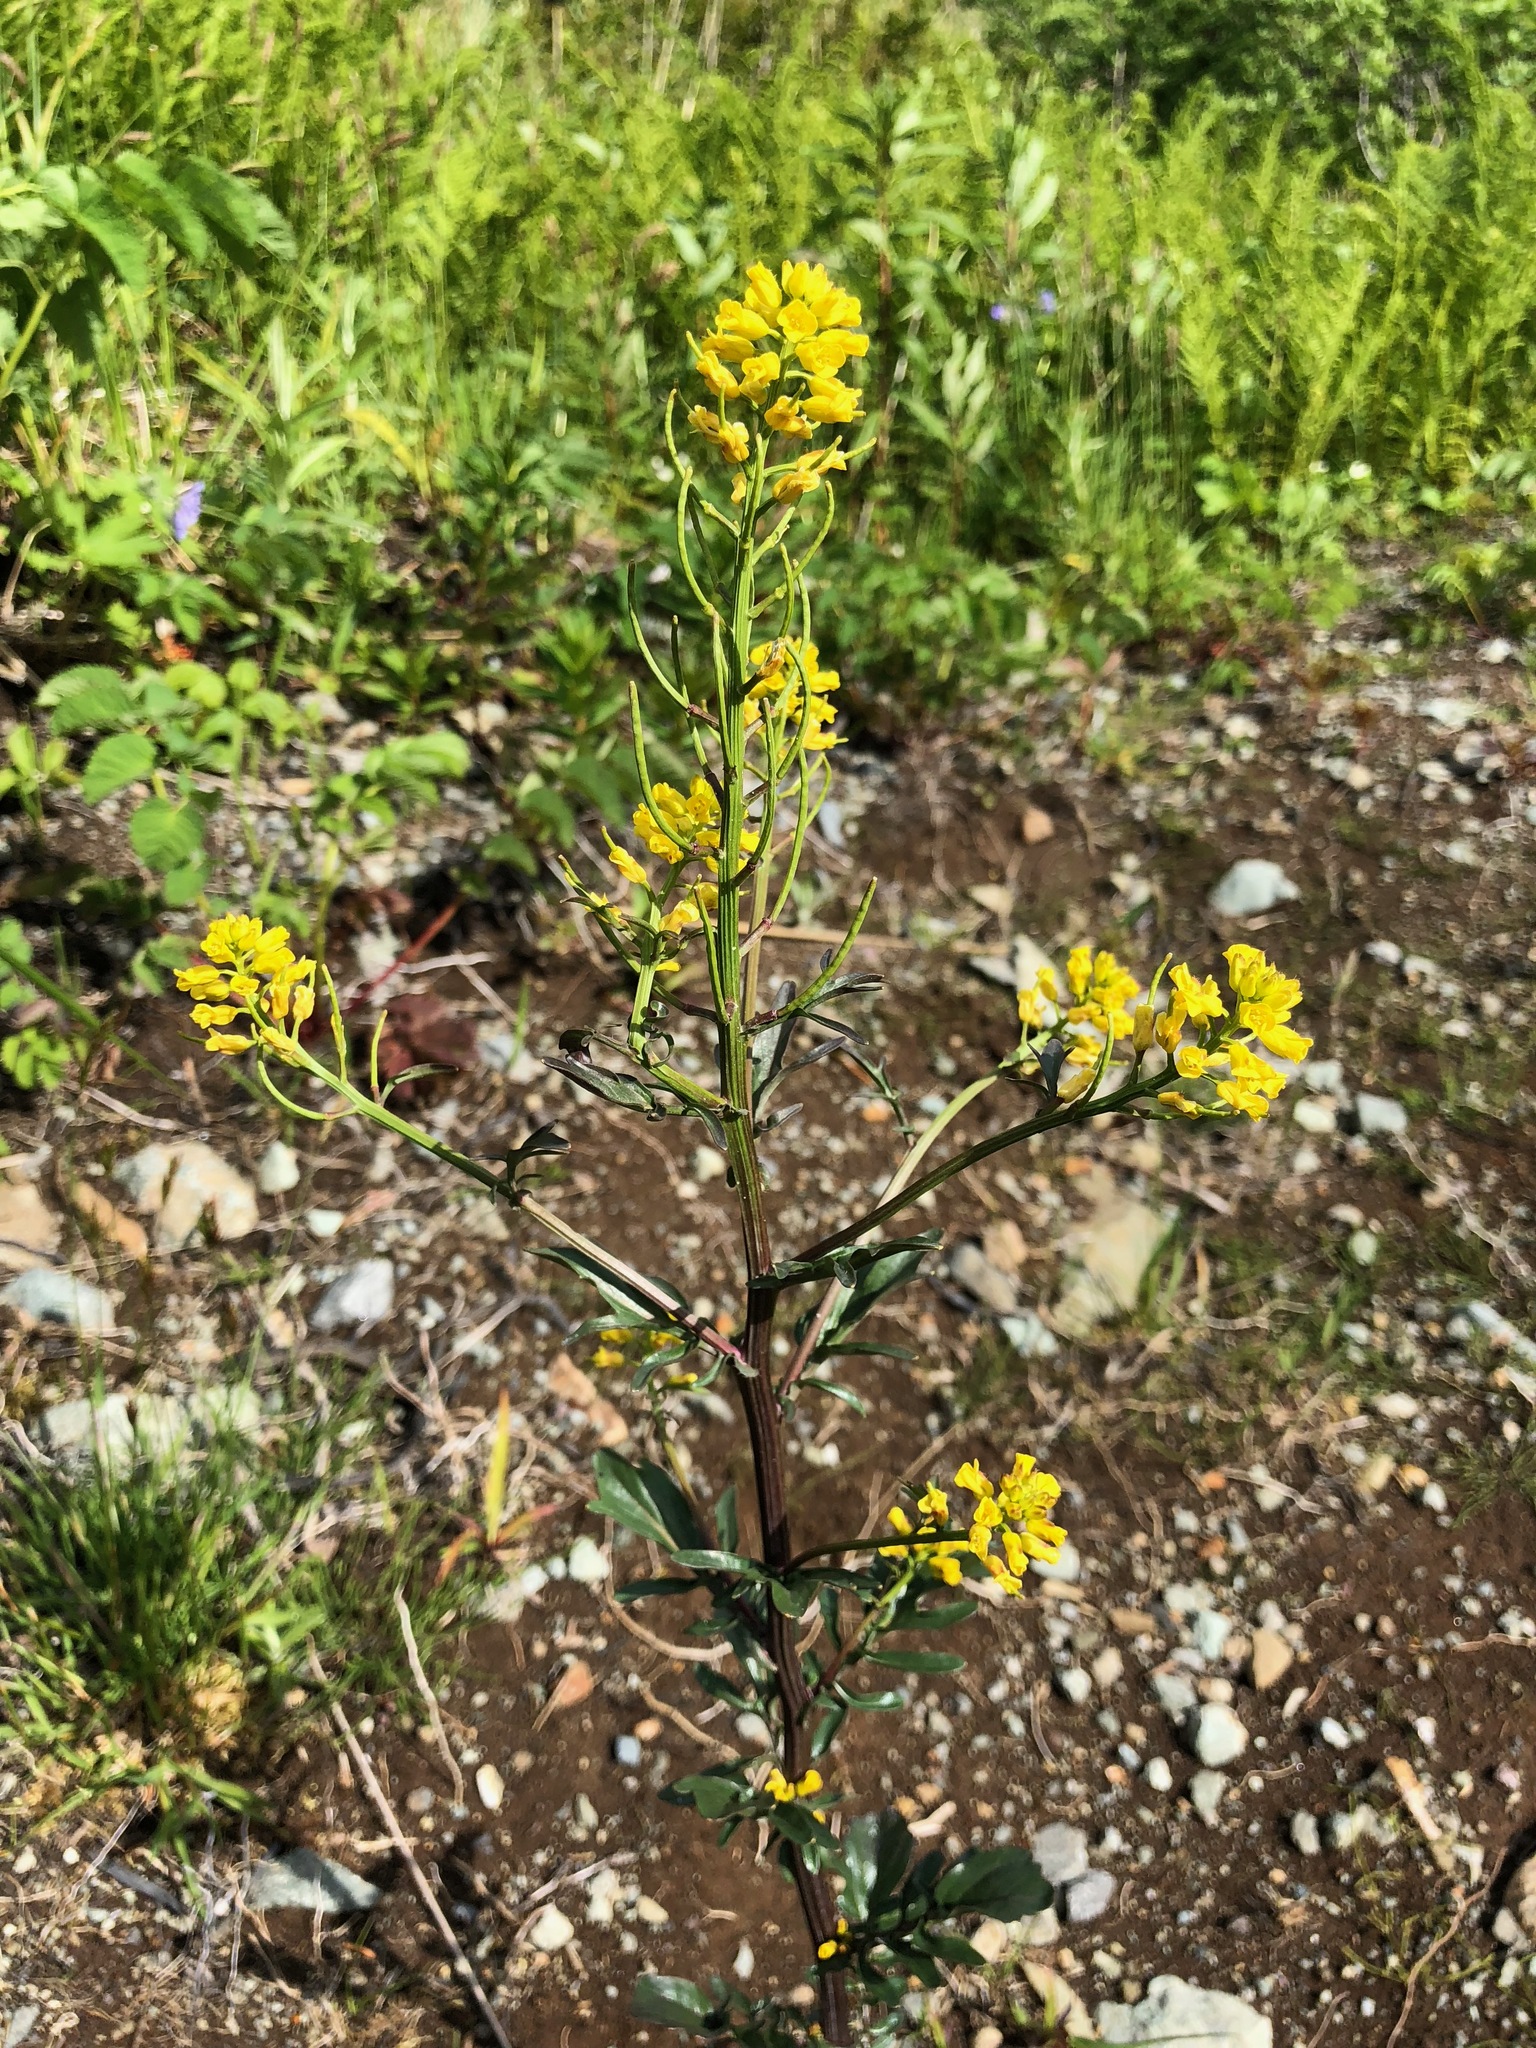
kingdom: Plantae
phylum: Tracheophyta
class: Magnoliopsida
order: Brassicales
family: Brassicaceae
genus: Barbarea
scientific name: Barbarea orthoceras
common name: American wintercress
